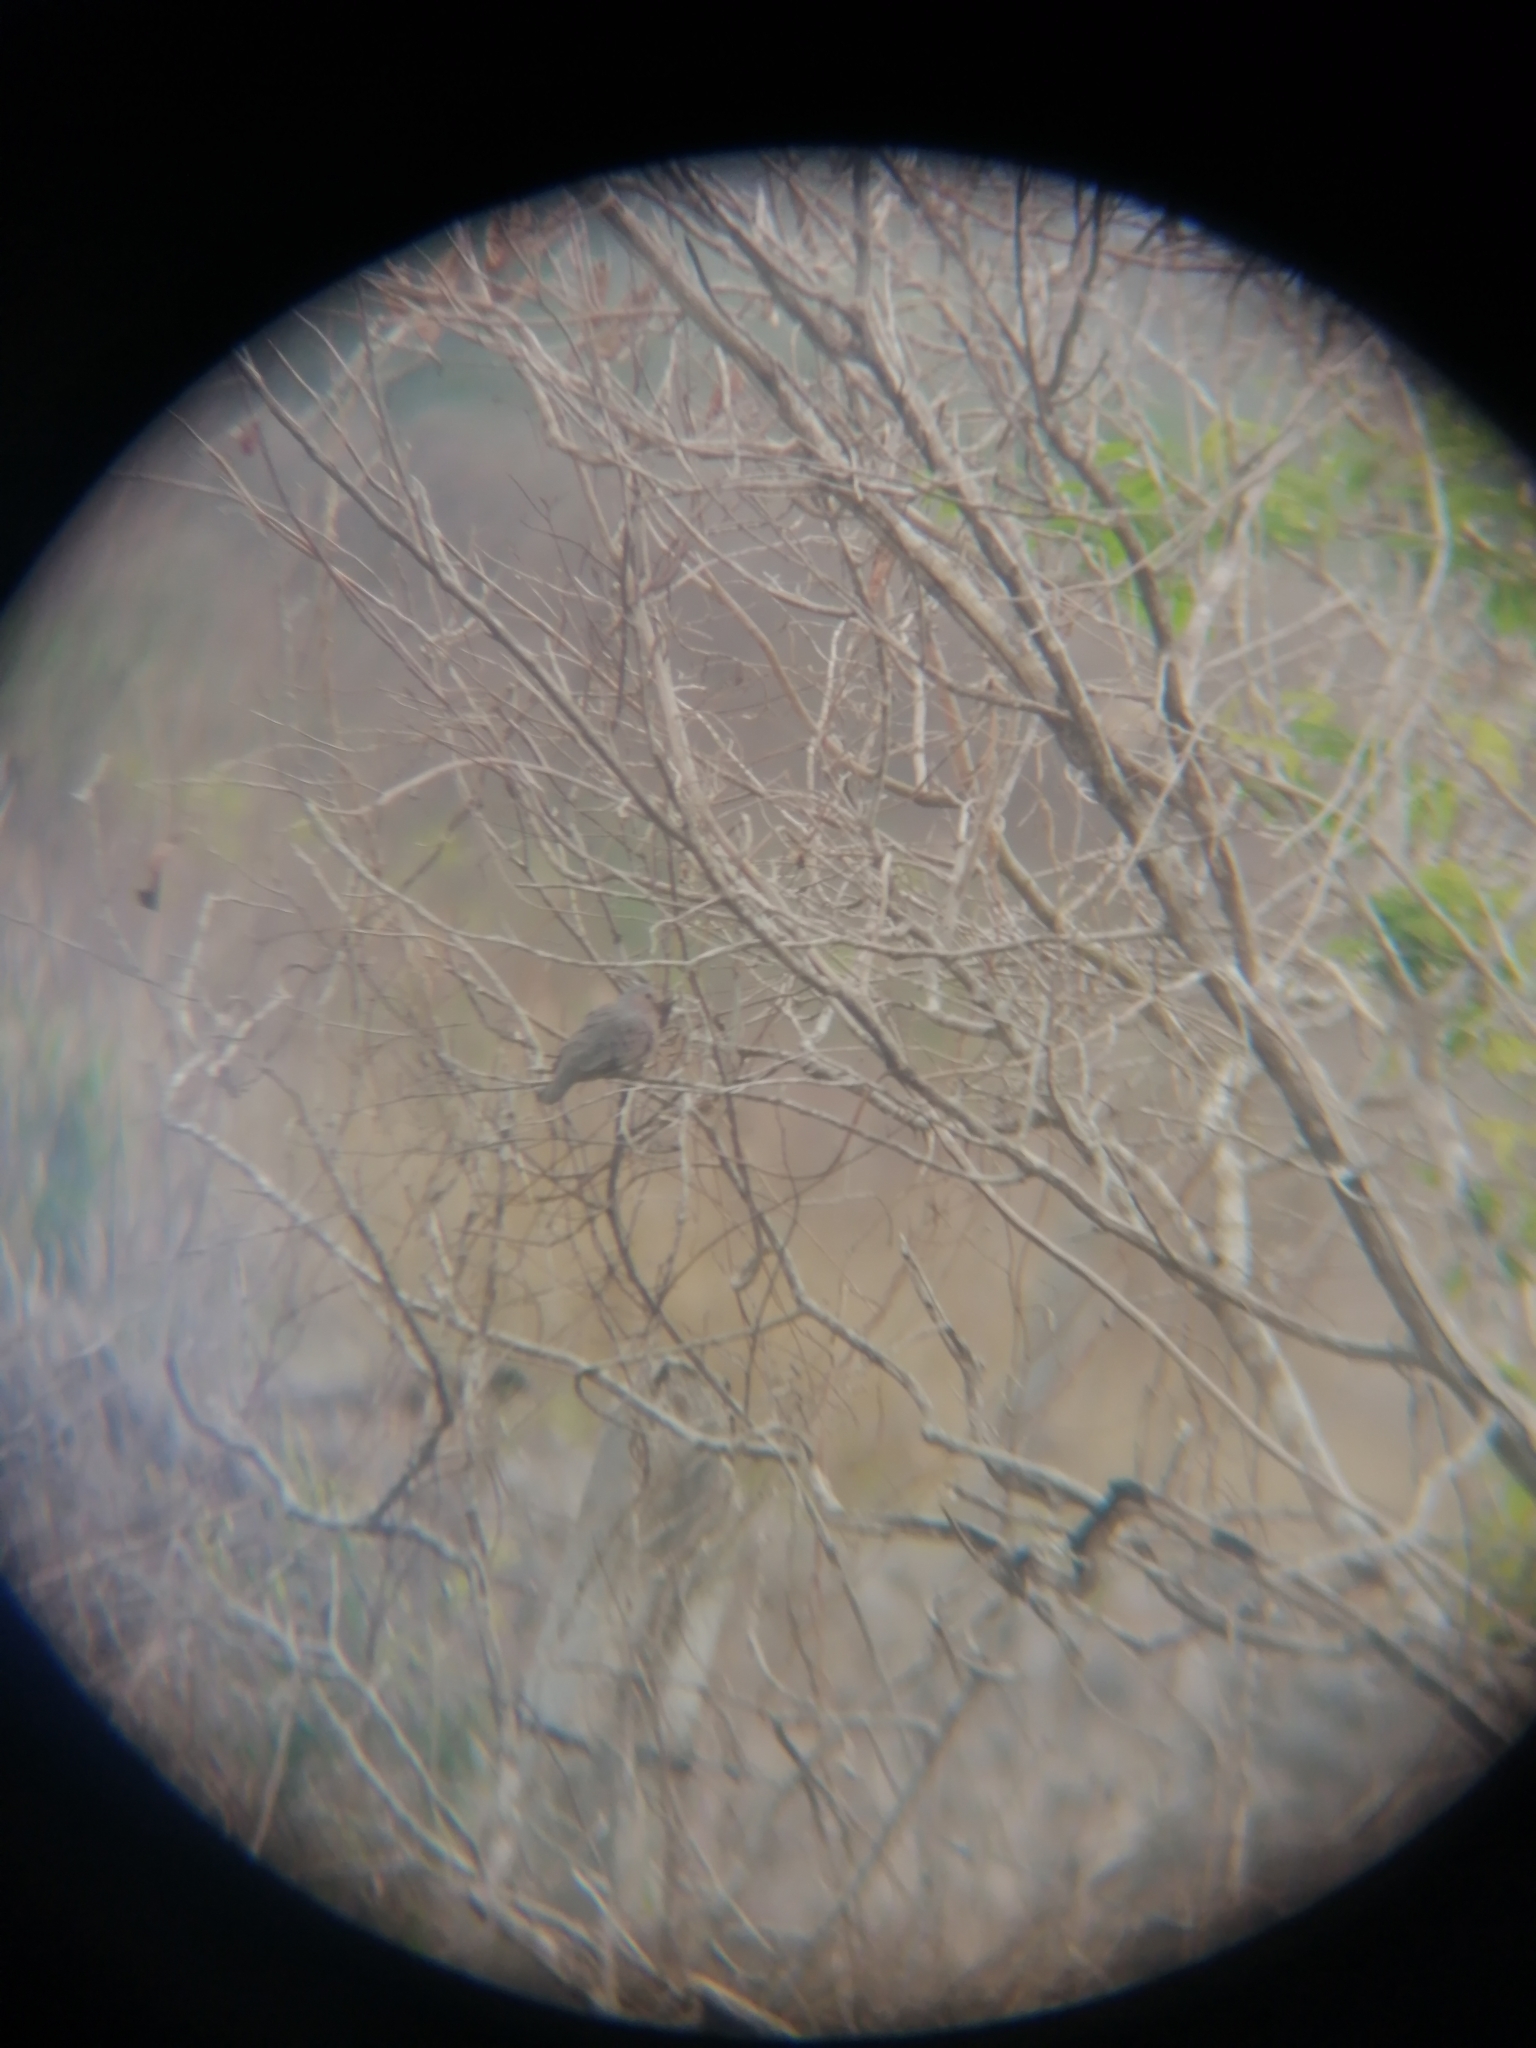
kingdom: Animalia
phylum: Chordata
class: Aves
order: Columbiformes
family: Columbidae
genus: Columbina
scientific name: Columbina passerina
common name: Common ground-dove
